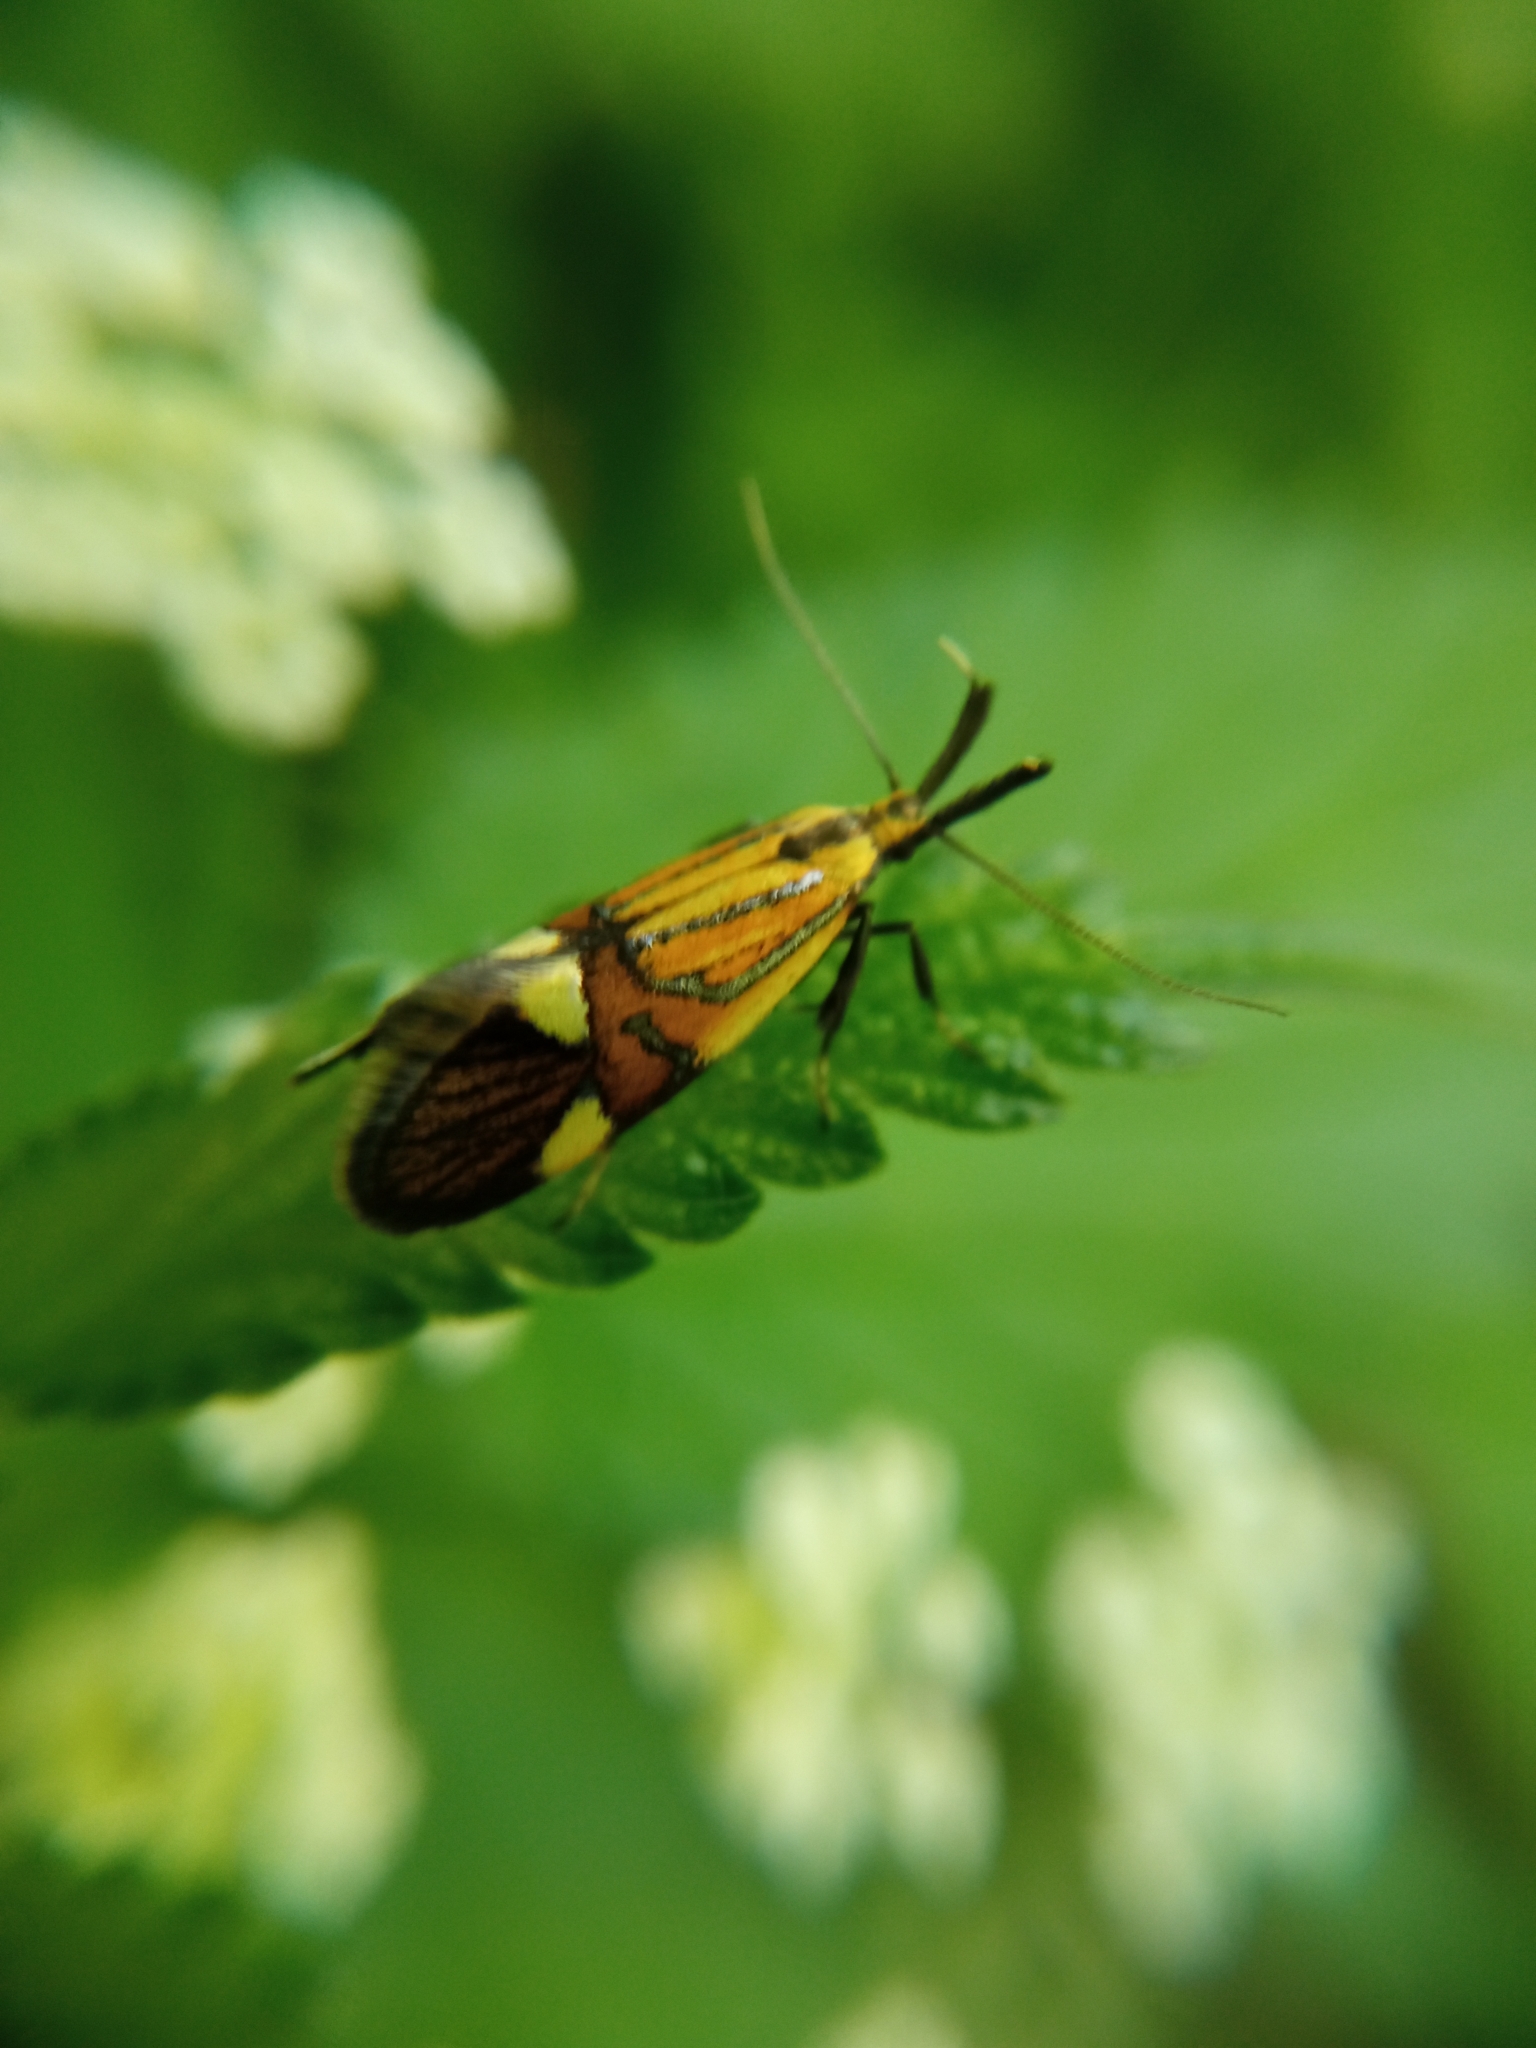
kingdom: Animalia
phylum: Arthropoda
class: Insecta
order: Lepidoptera
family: Oecophoridae
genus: Oecophora
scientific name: Oecophora Alabonia geoffrella
